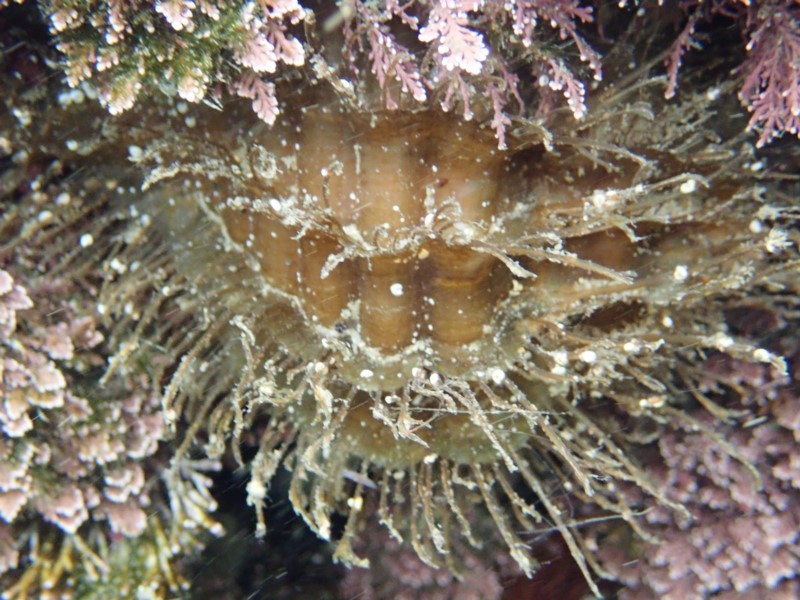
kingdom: Animalia
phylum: Mollusca
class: Gastropoda
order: Littorinimorpha
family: Cymatiidae
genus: Monoplex
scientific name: Monoplex parthenopeus
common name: Giant triton
